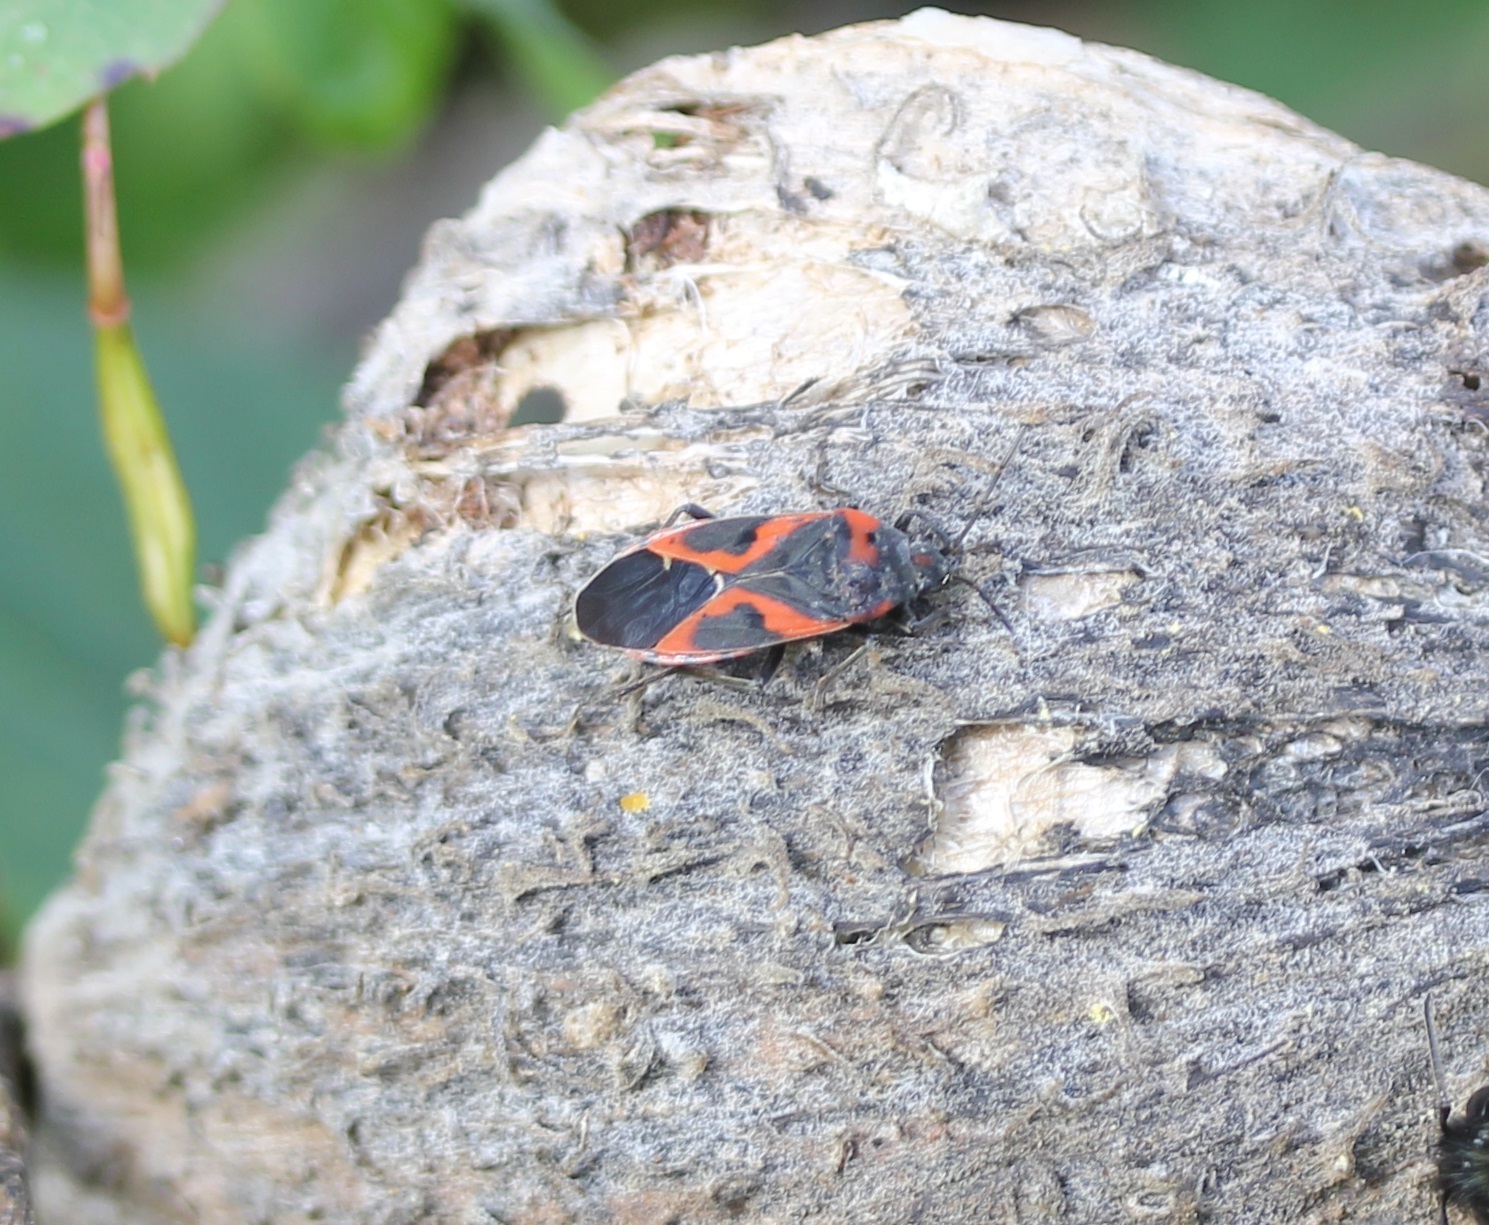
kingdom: Animalia
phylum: Arthropoda
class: Insecta
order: Hemiptera
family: Lygaeidae
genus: Lygaeus
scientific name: Lygaeus kalmii
